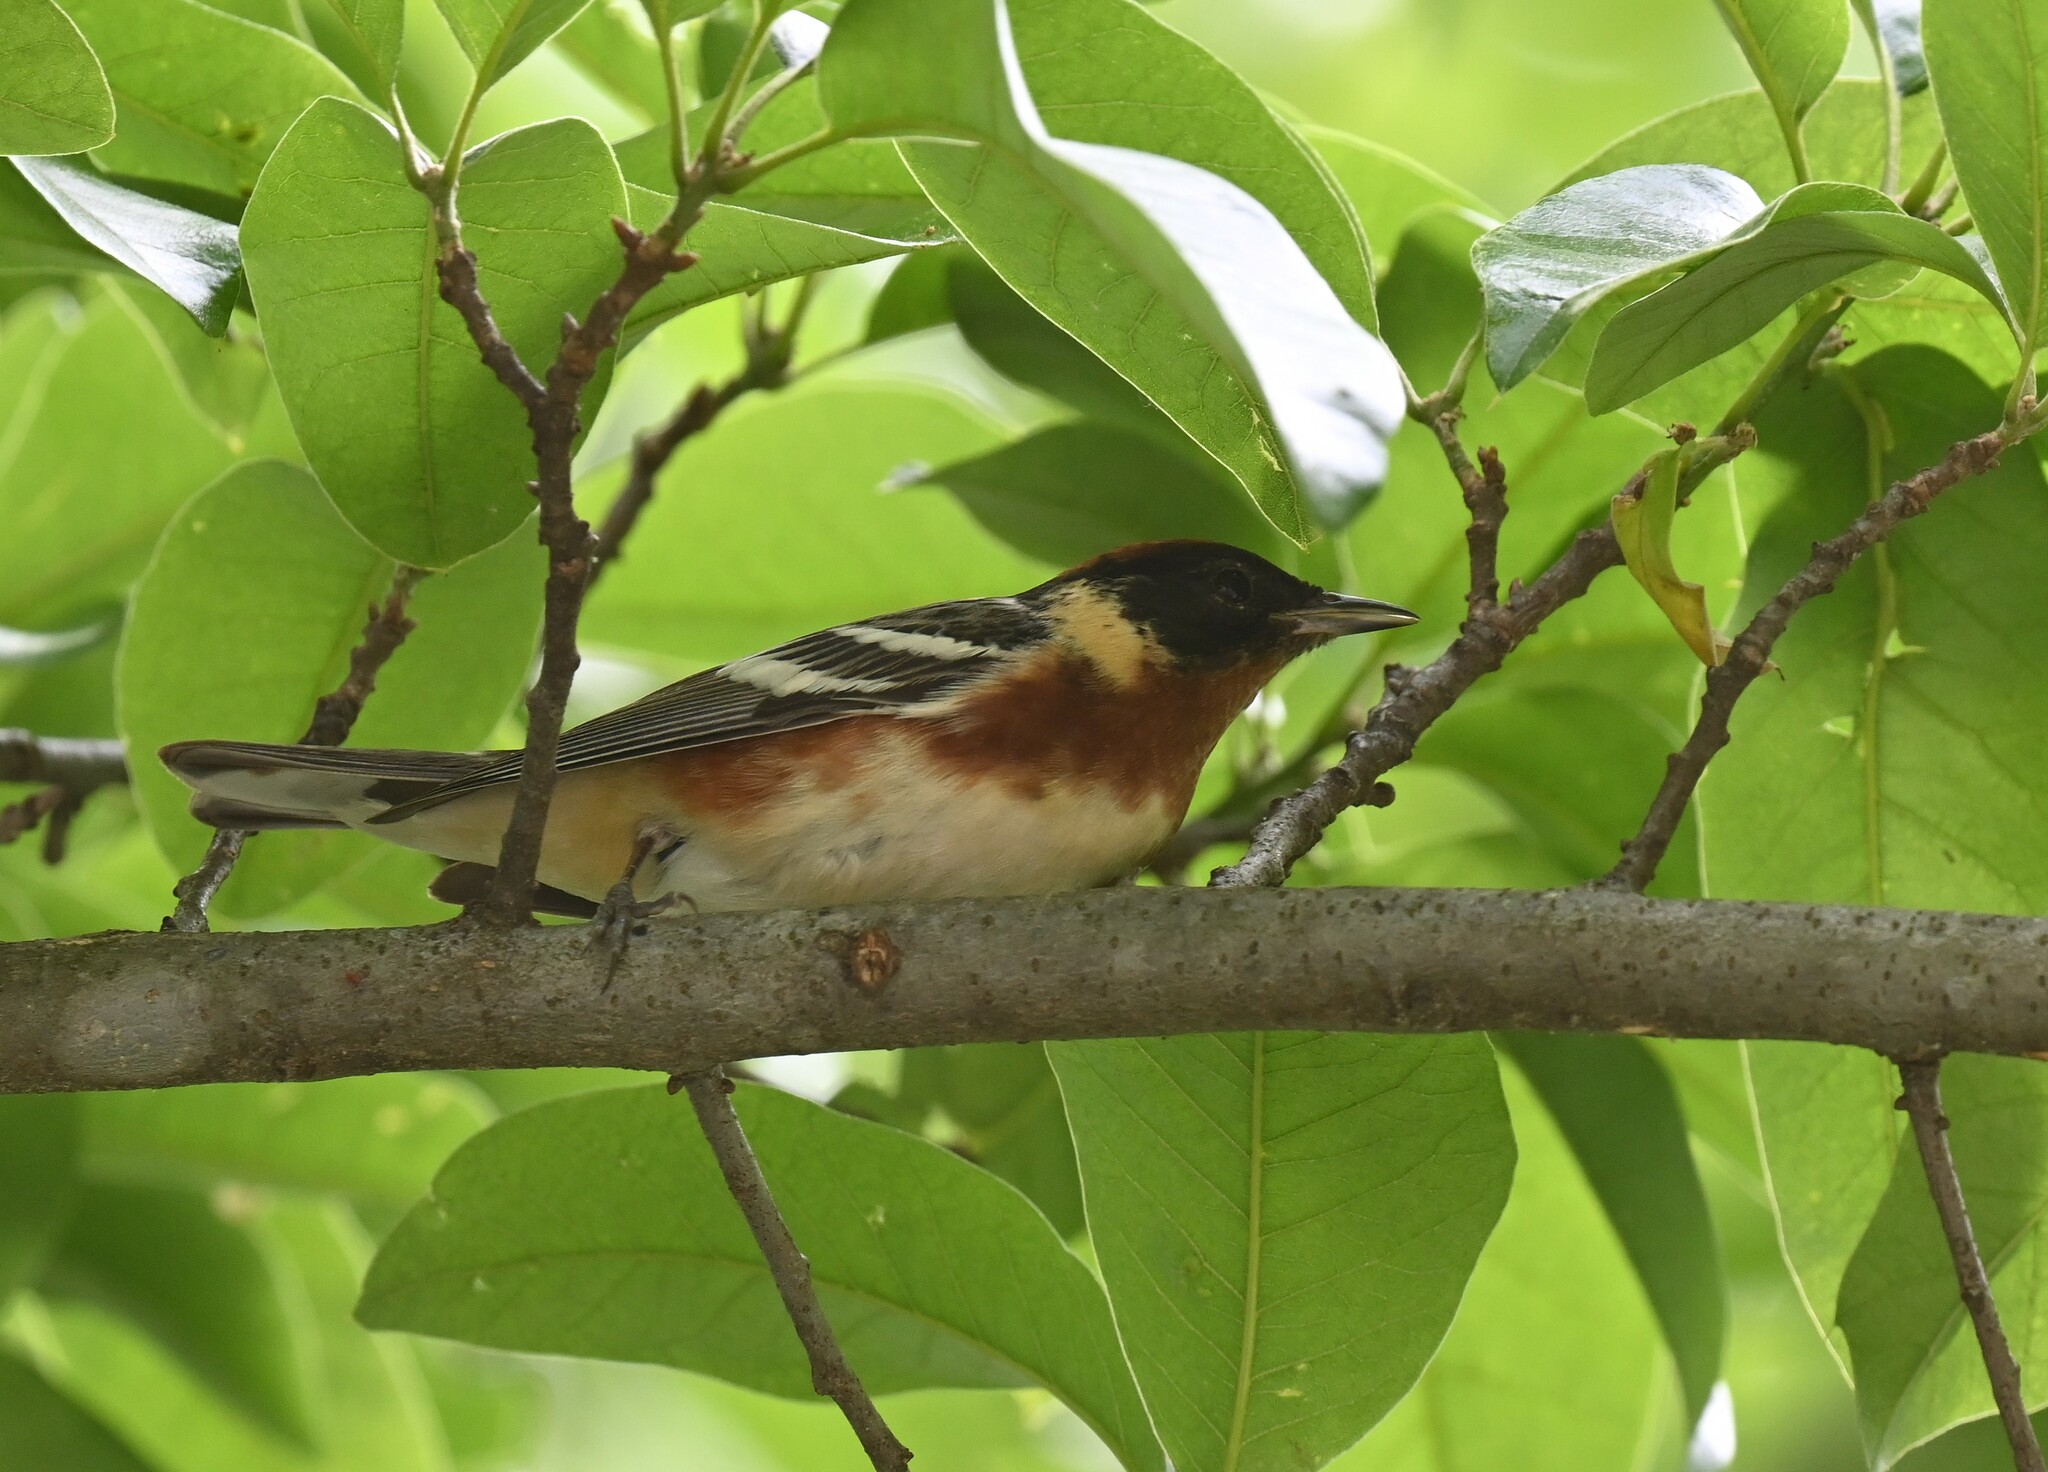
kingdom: Animalia
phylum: Chordata
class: Aves
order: Passeriformes
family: Parulidae
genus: Setophaga
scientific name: Setophaga castanea
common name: Bay-breasted warbler
